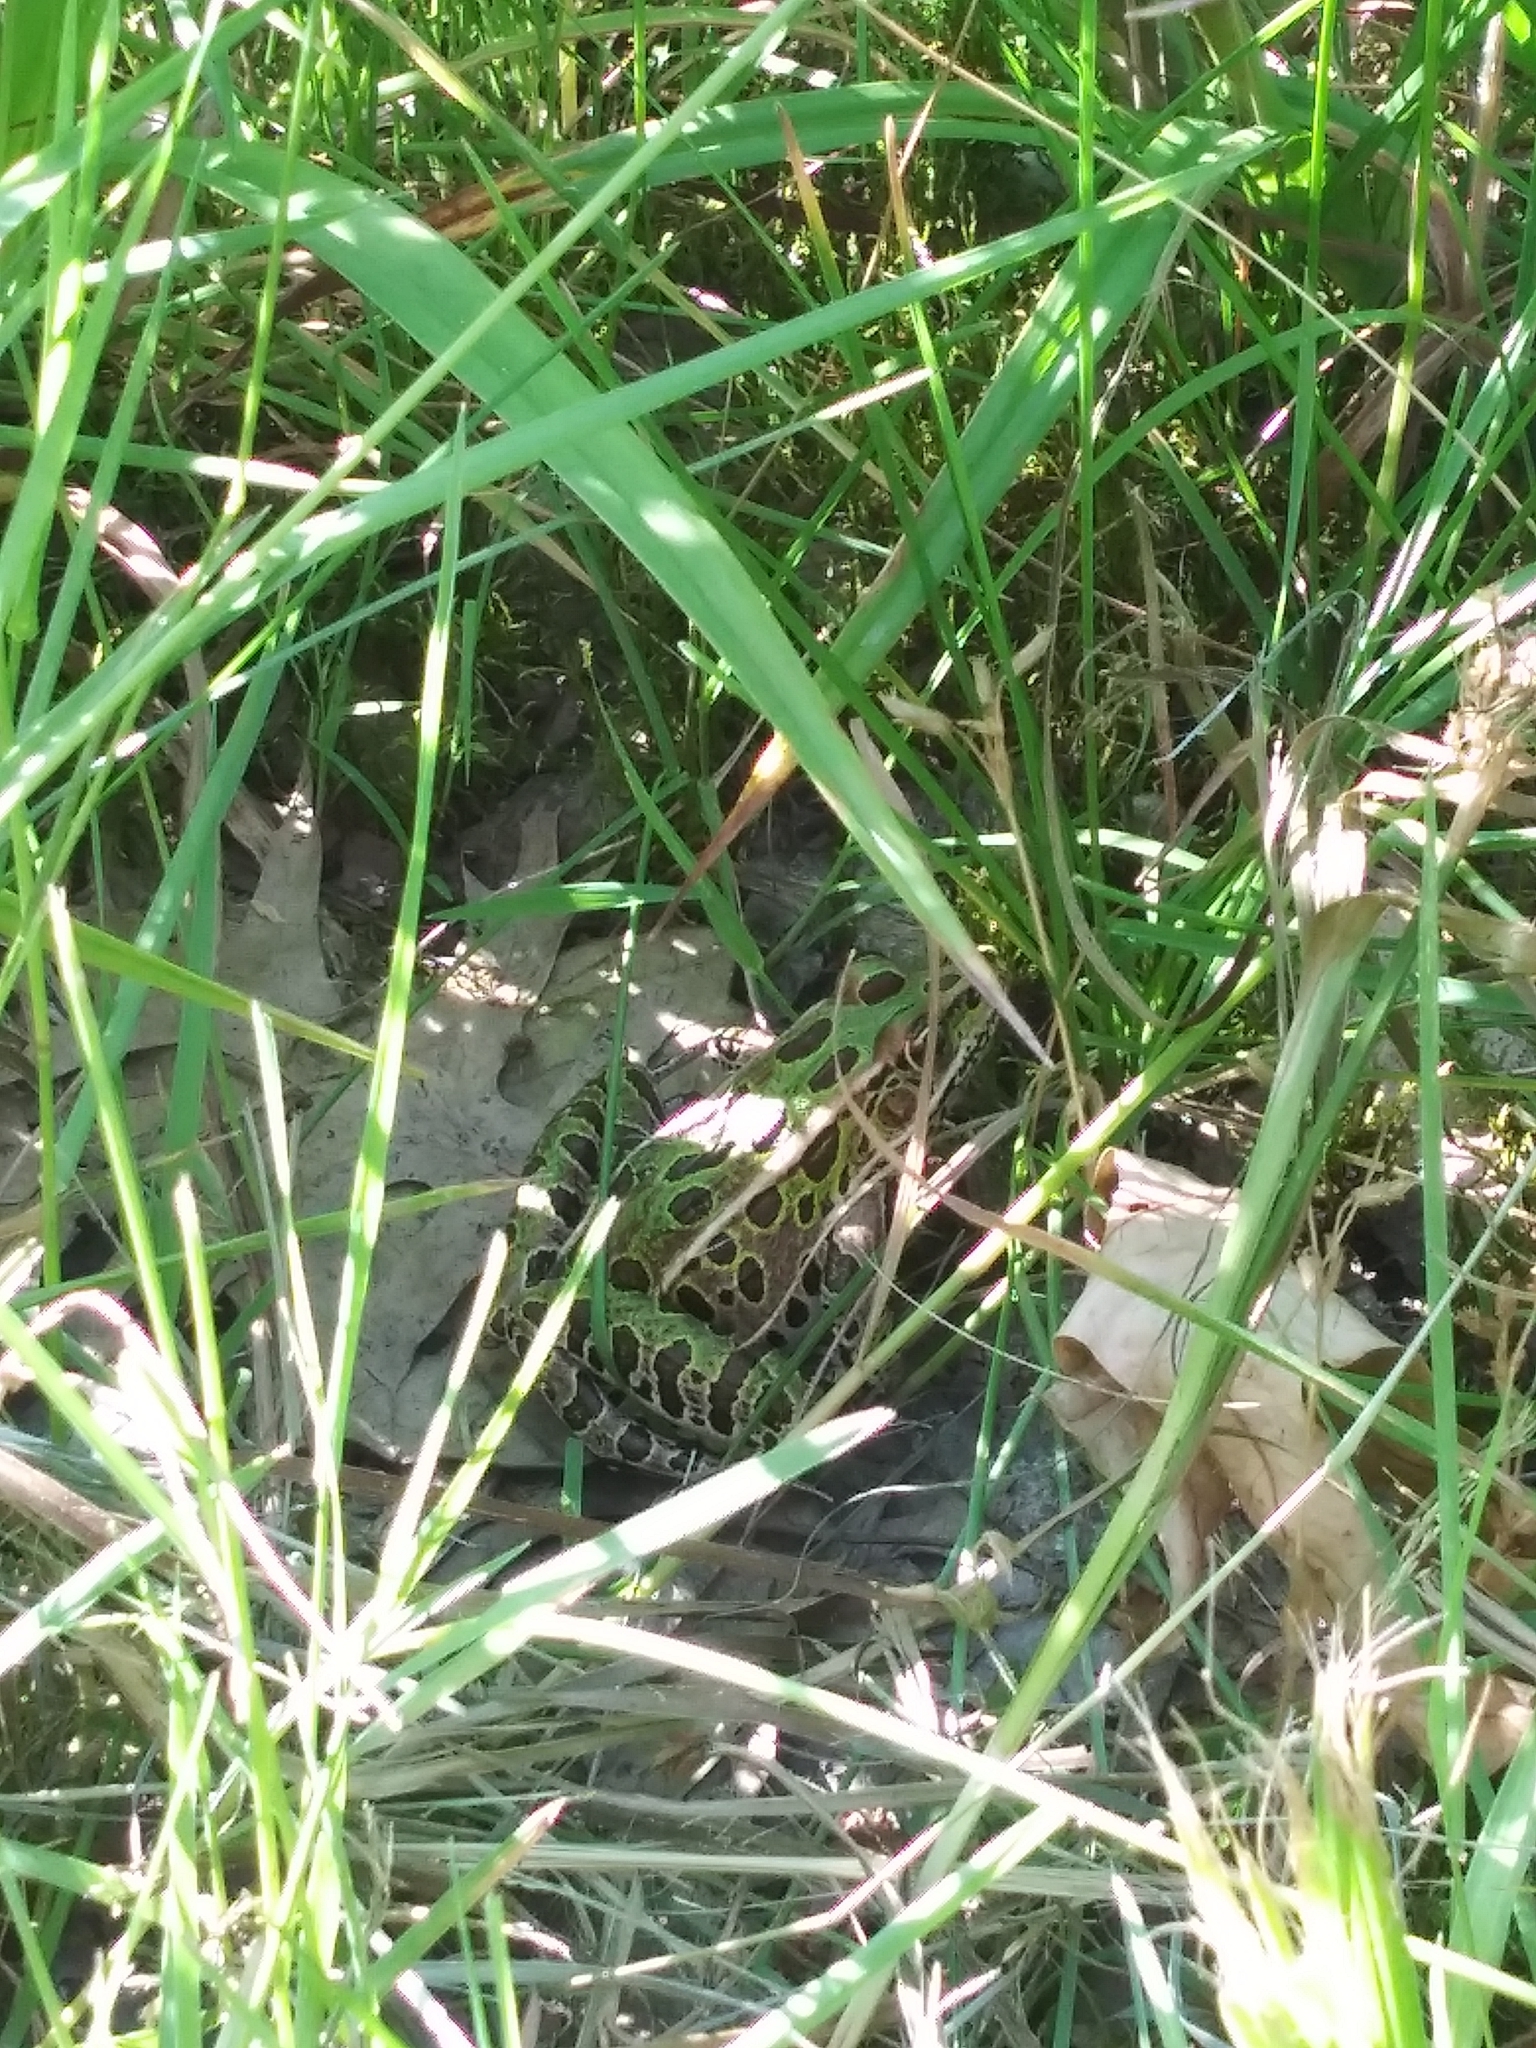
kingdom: Animalia
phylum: Chordata
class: Amphibia
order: Anura
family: Ranidae
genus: Lithobates
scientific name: Lithobates pipiens
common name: Northern leopard frog
